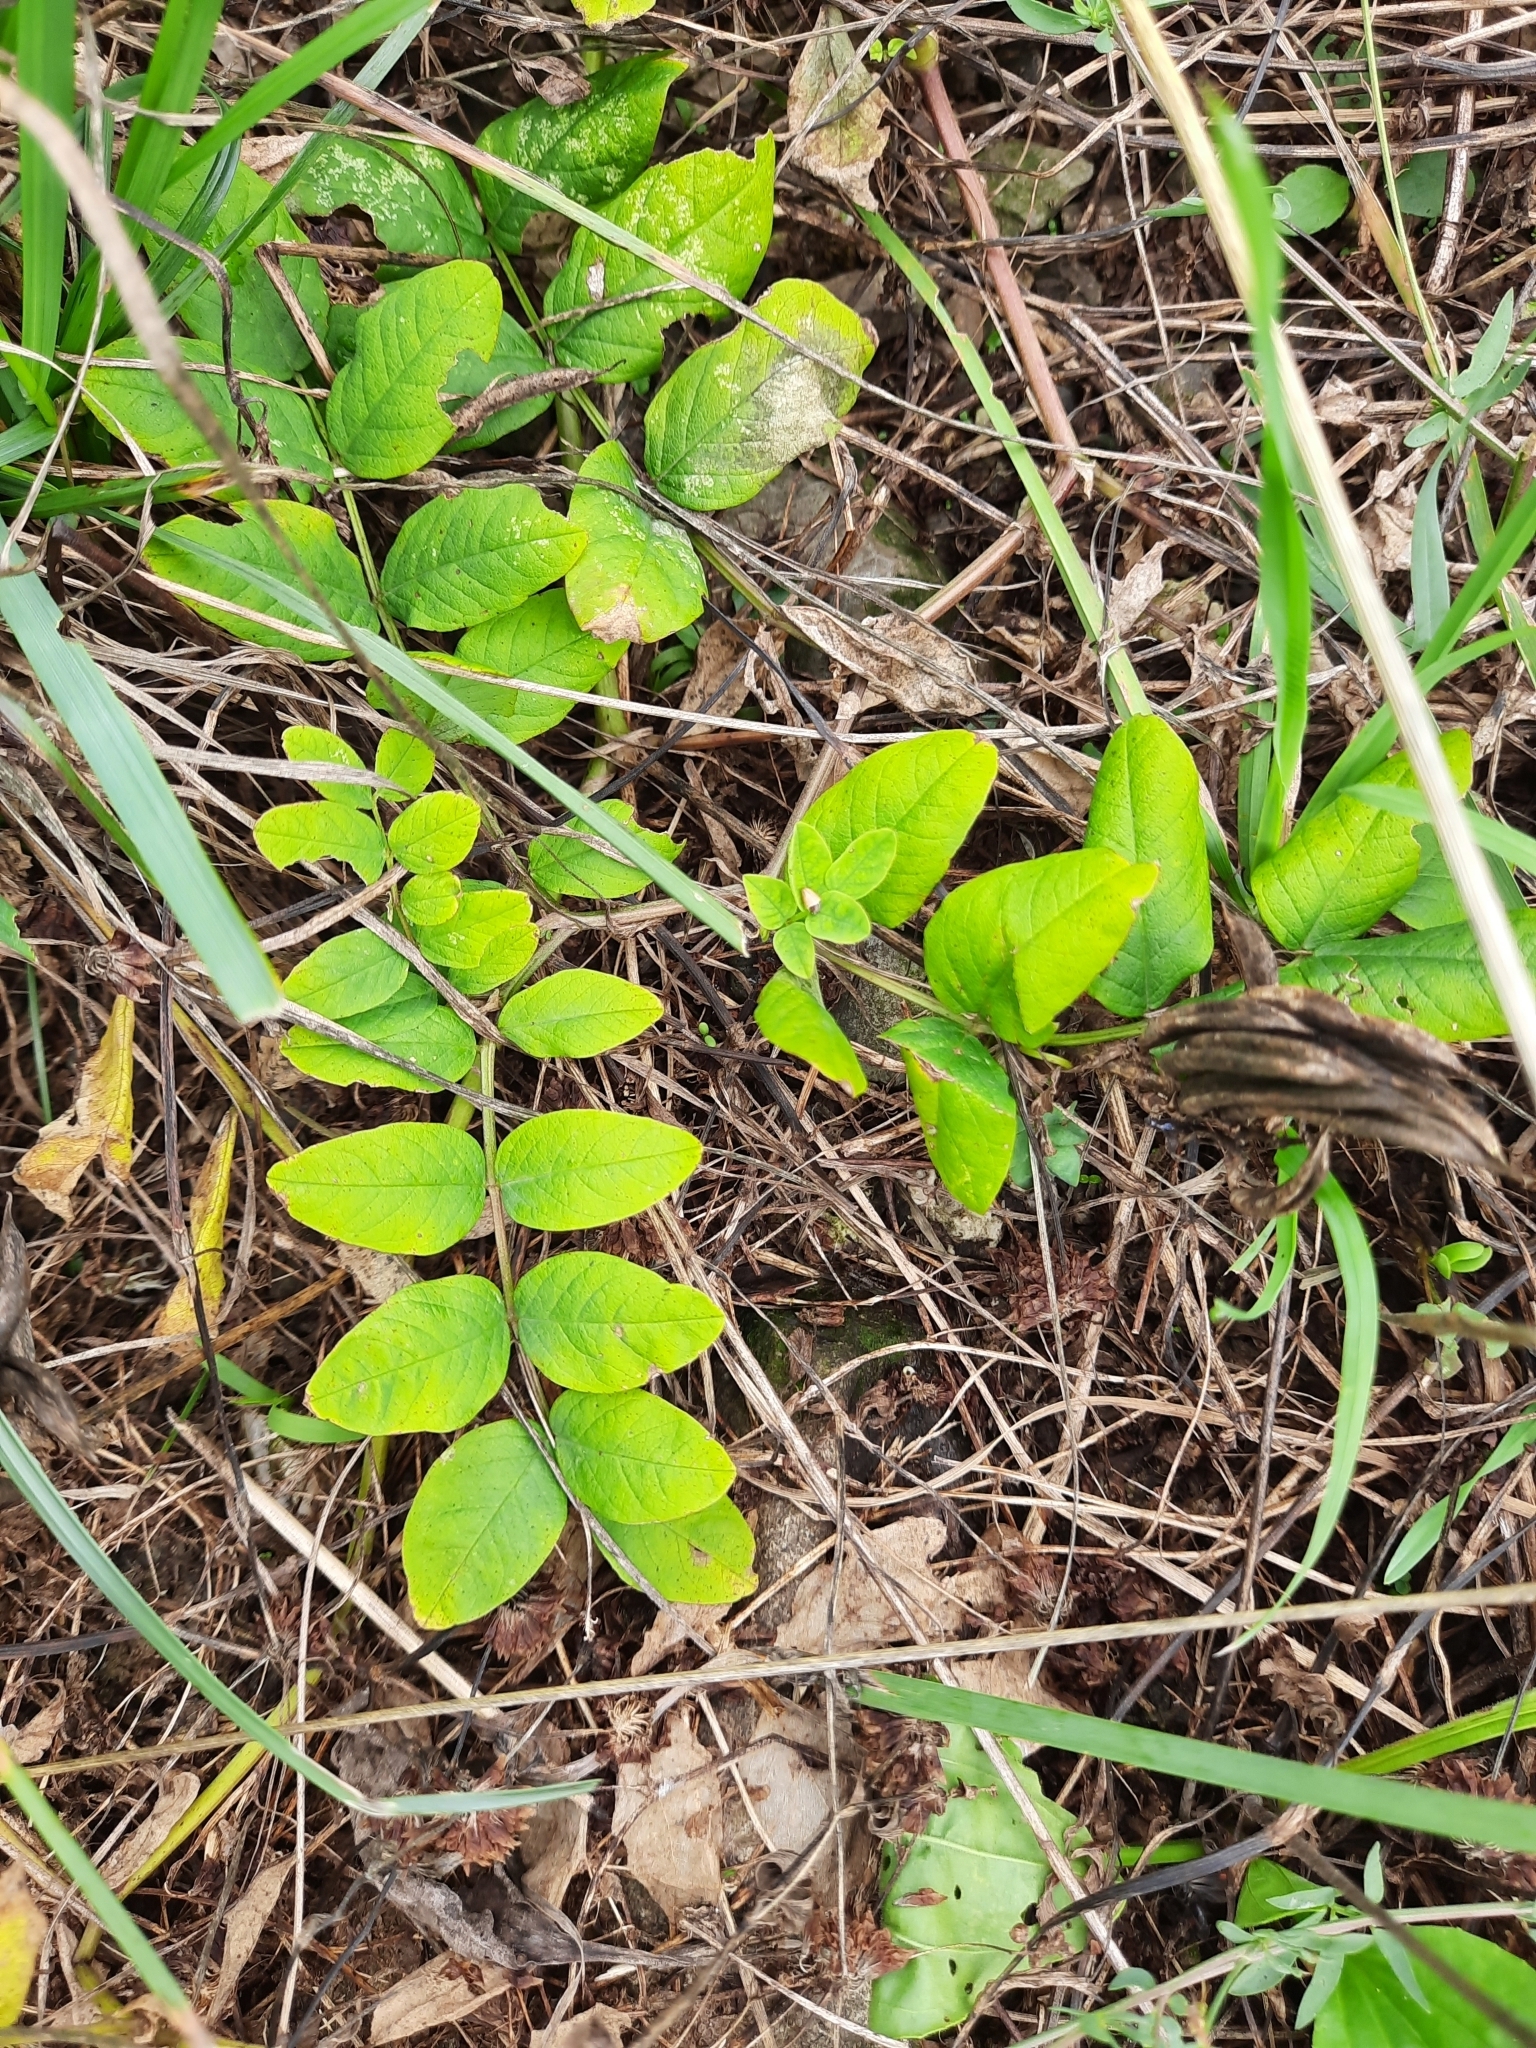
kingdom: Plantae
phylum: Tracheophyta
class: Magnoliopsida
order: Fabales
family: Fabaceae
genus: Astragalus
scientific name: Astragalus glycyphyllos
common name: Wild liquorice
